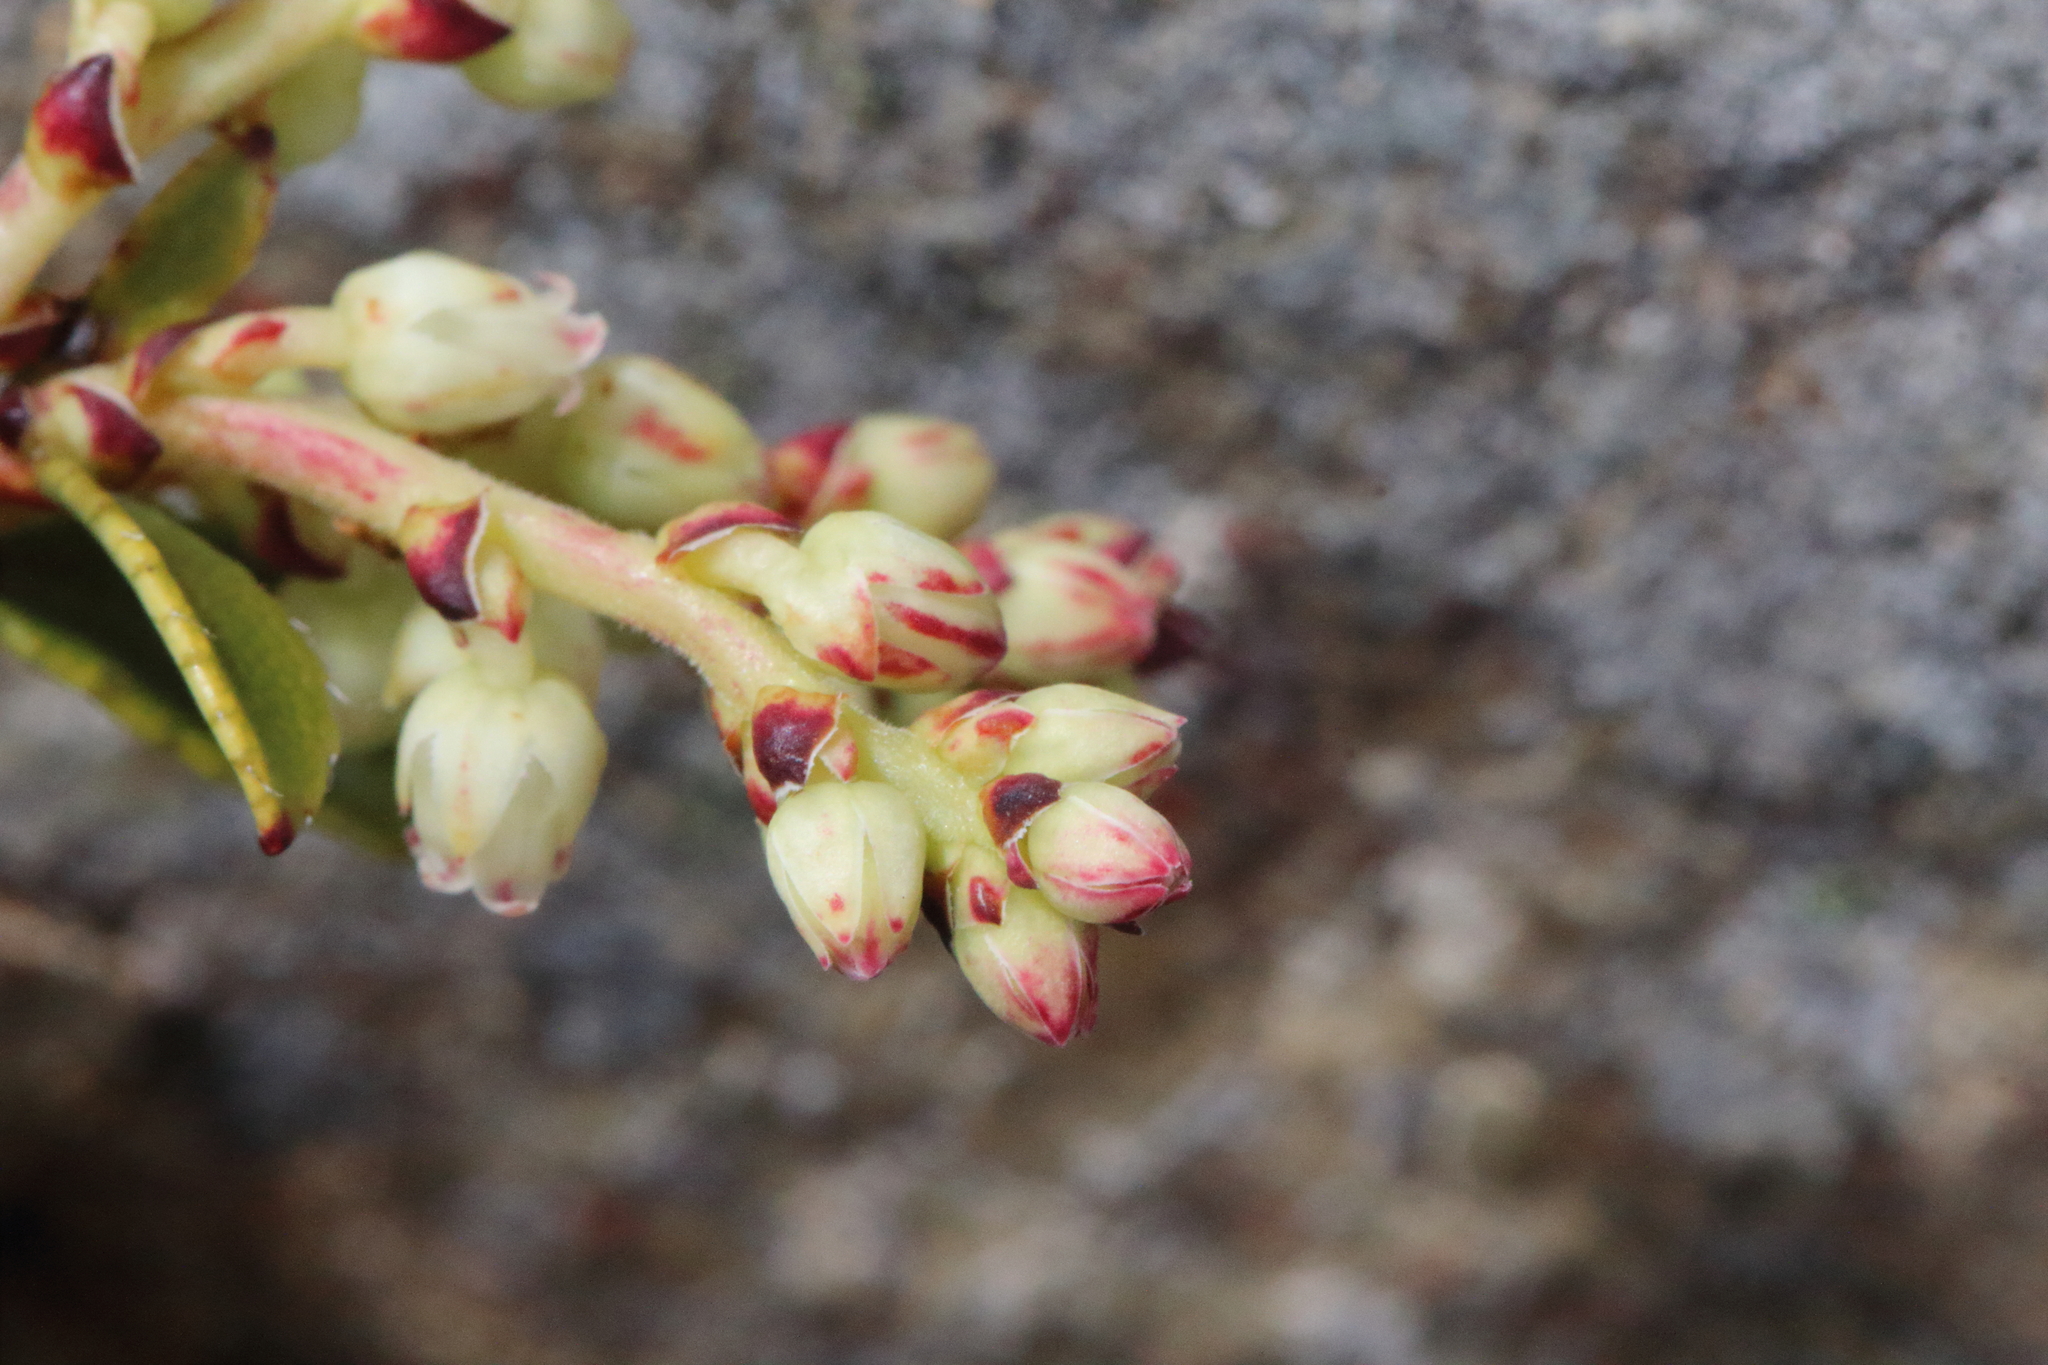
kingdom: Plantae
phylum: Tracheophyta
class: Magnoliopsida
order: Ericales
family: Ericaceae
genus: Gaultheria
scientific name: Gaultheria crassa
